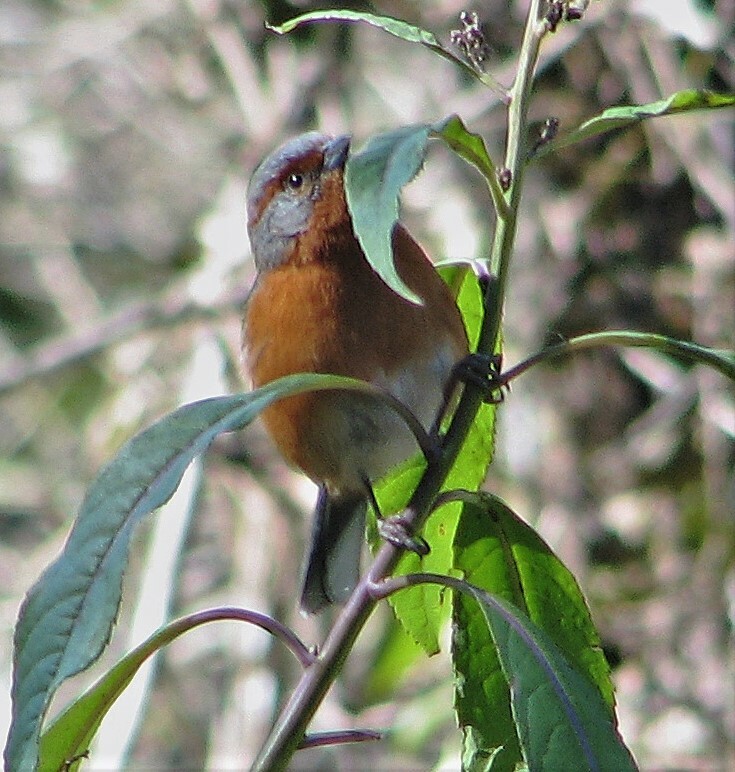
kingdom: Animalia
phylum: Chordata
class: Aves
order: Passeriformes
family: Thraupidae
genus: Microspingus
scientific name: Microspingus erythrophrys
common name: Rusty-browed warbling-finch
